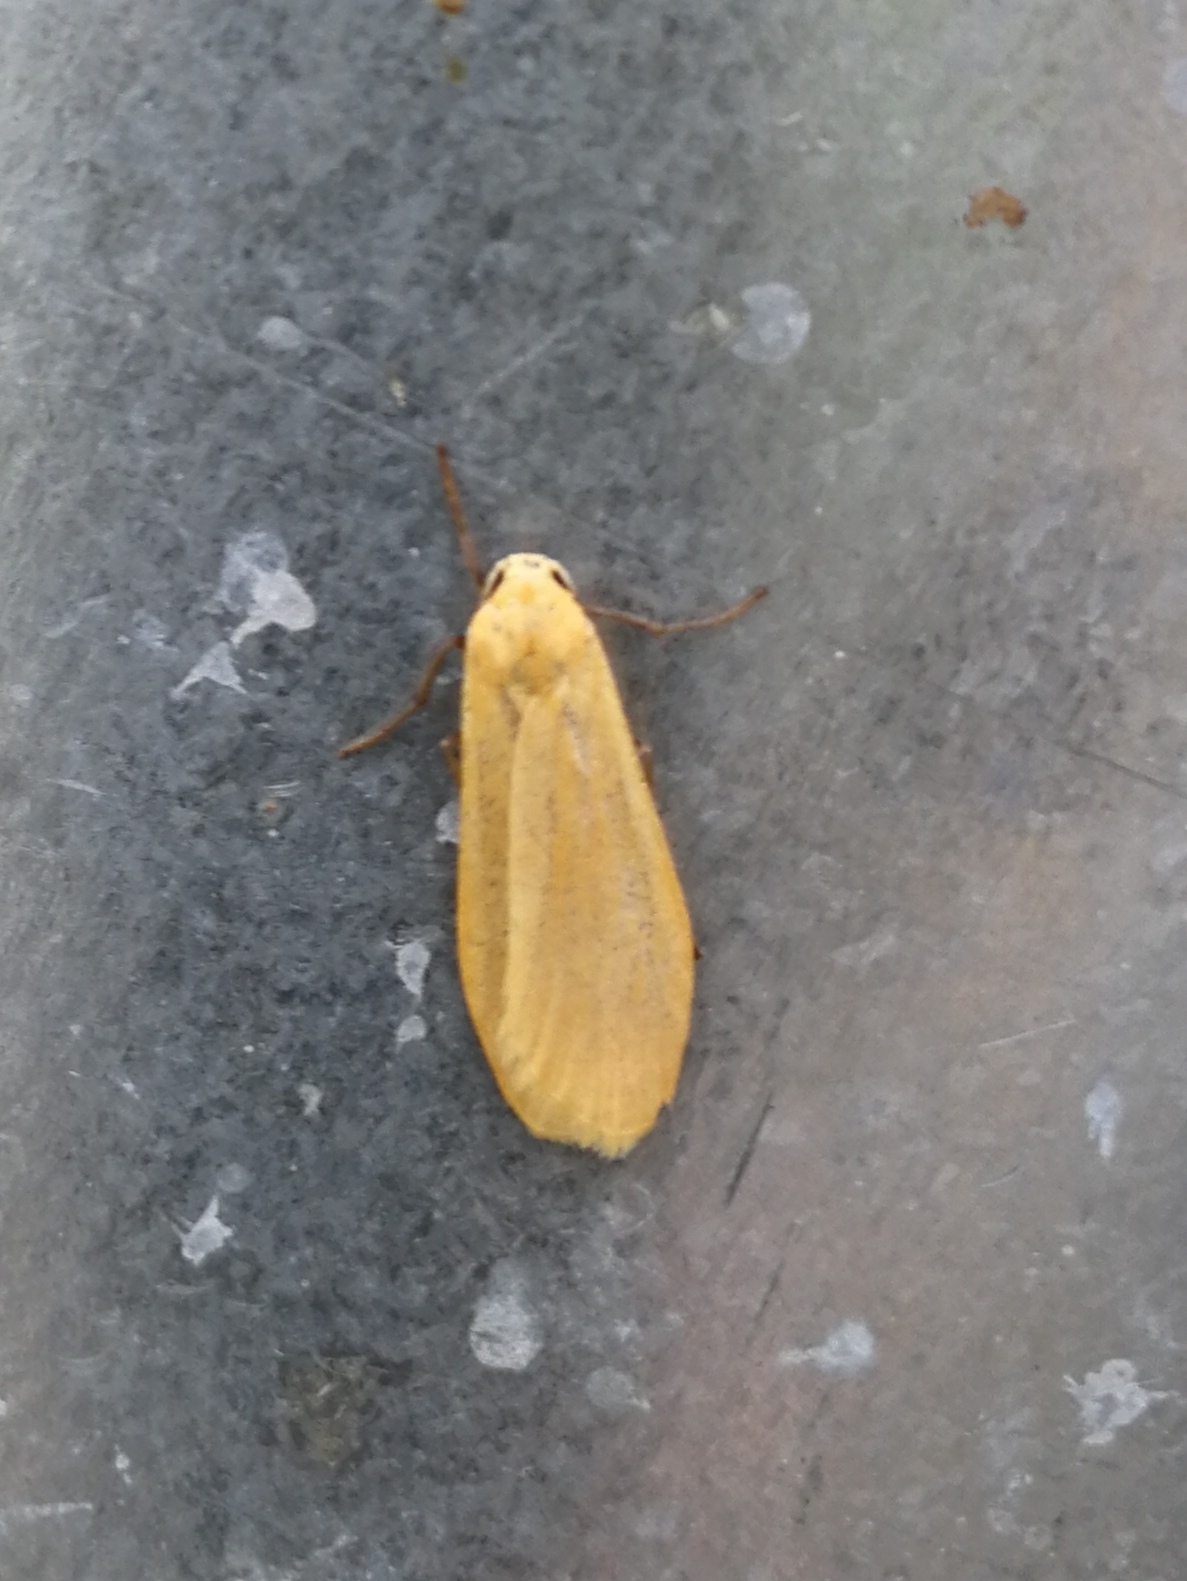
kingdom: Animalia
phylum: Arthropoda
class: Insecta
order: Lepidoptera
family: Erebidae
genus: Wittia
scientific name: Wittia sororcula
